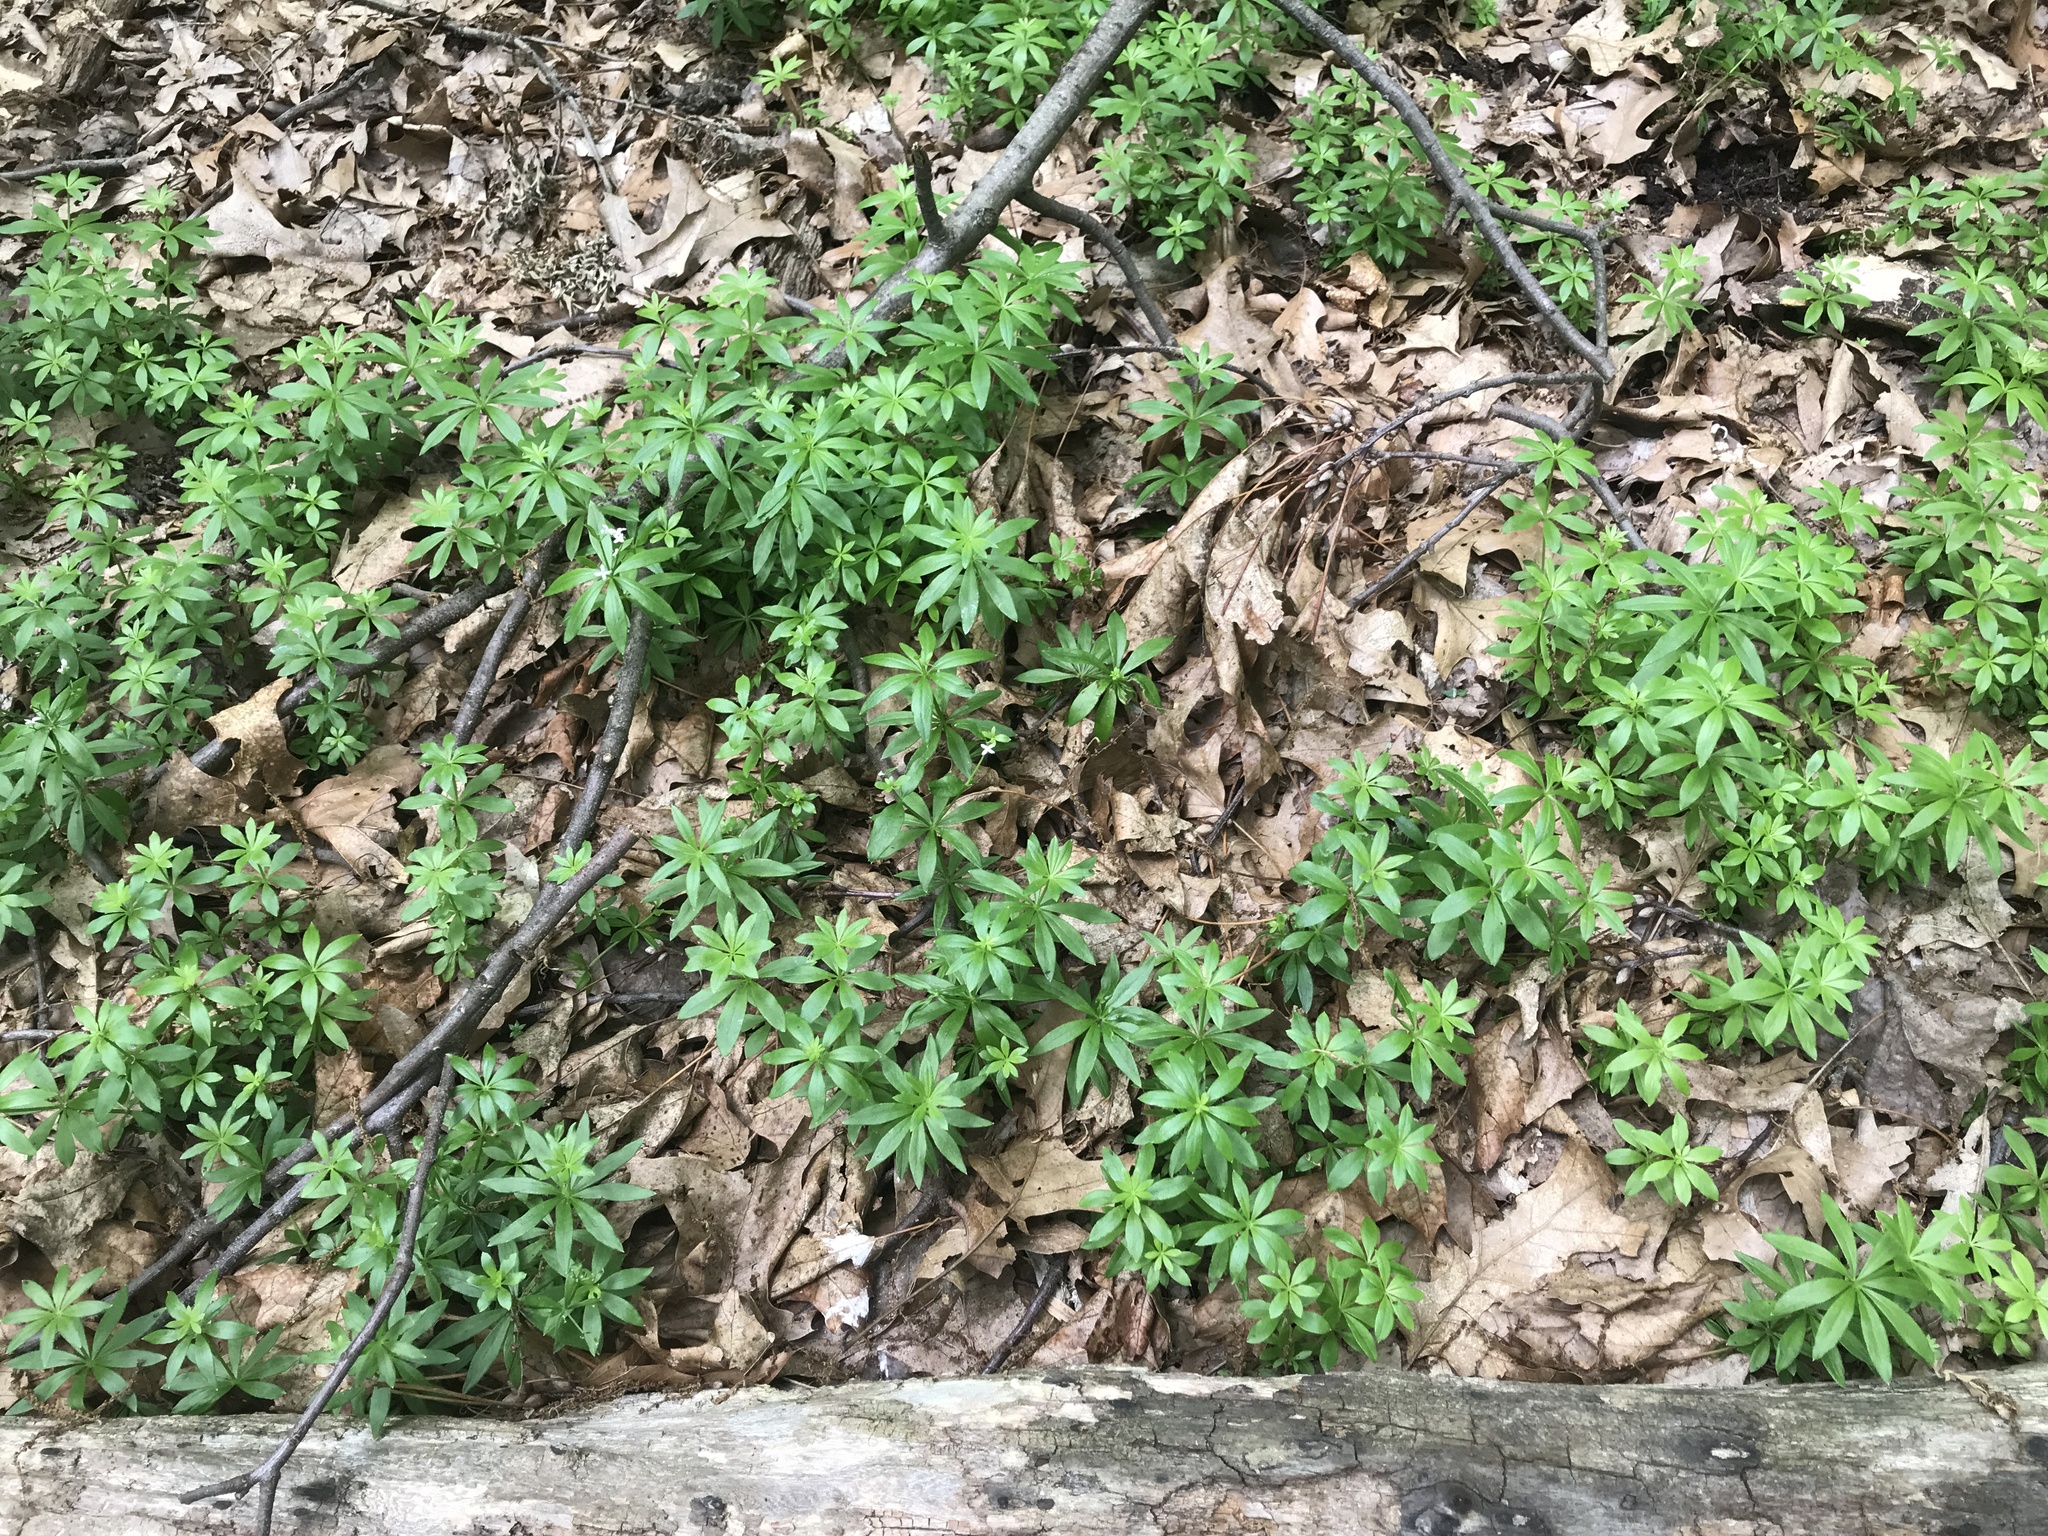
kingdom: Plantae
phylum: Tracheophyta
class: Magnoliopsida
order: Gentianales
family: Rubiaceae
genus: Galium
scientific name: Galium odoratum
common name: Sweet woodruff
